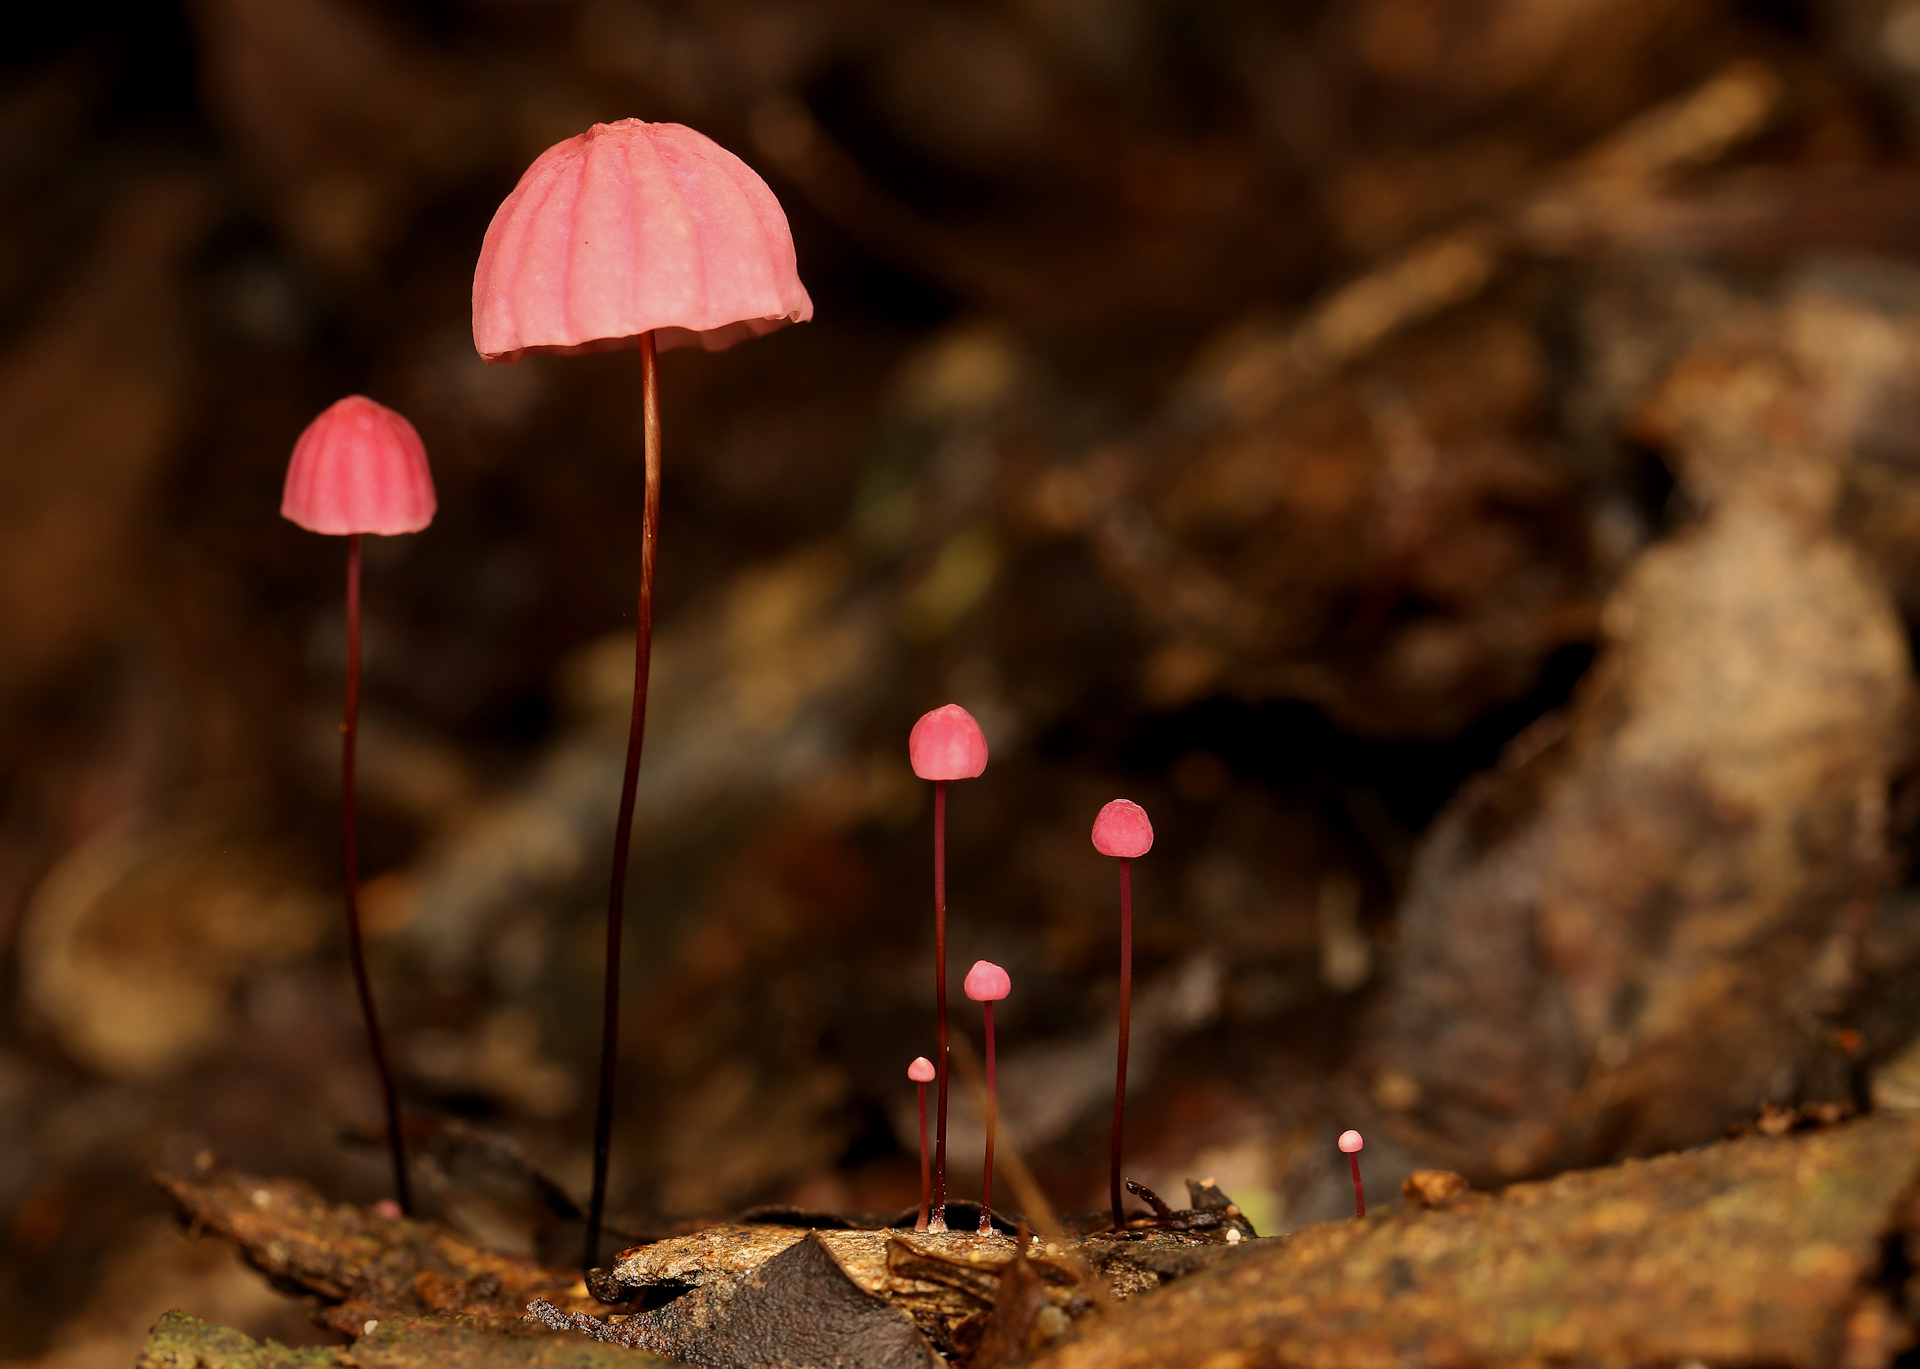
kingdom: Fungi
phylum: Basidiomycota
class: Agaricomycetes
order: Agaricales
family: Marasmiaceae
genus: Marasmius
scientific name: Marasmius haematocephalus
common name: Purple pinwheel
